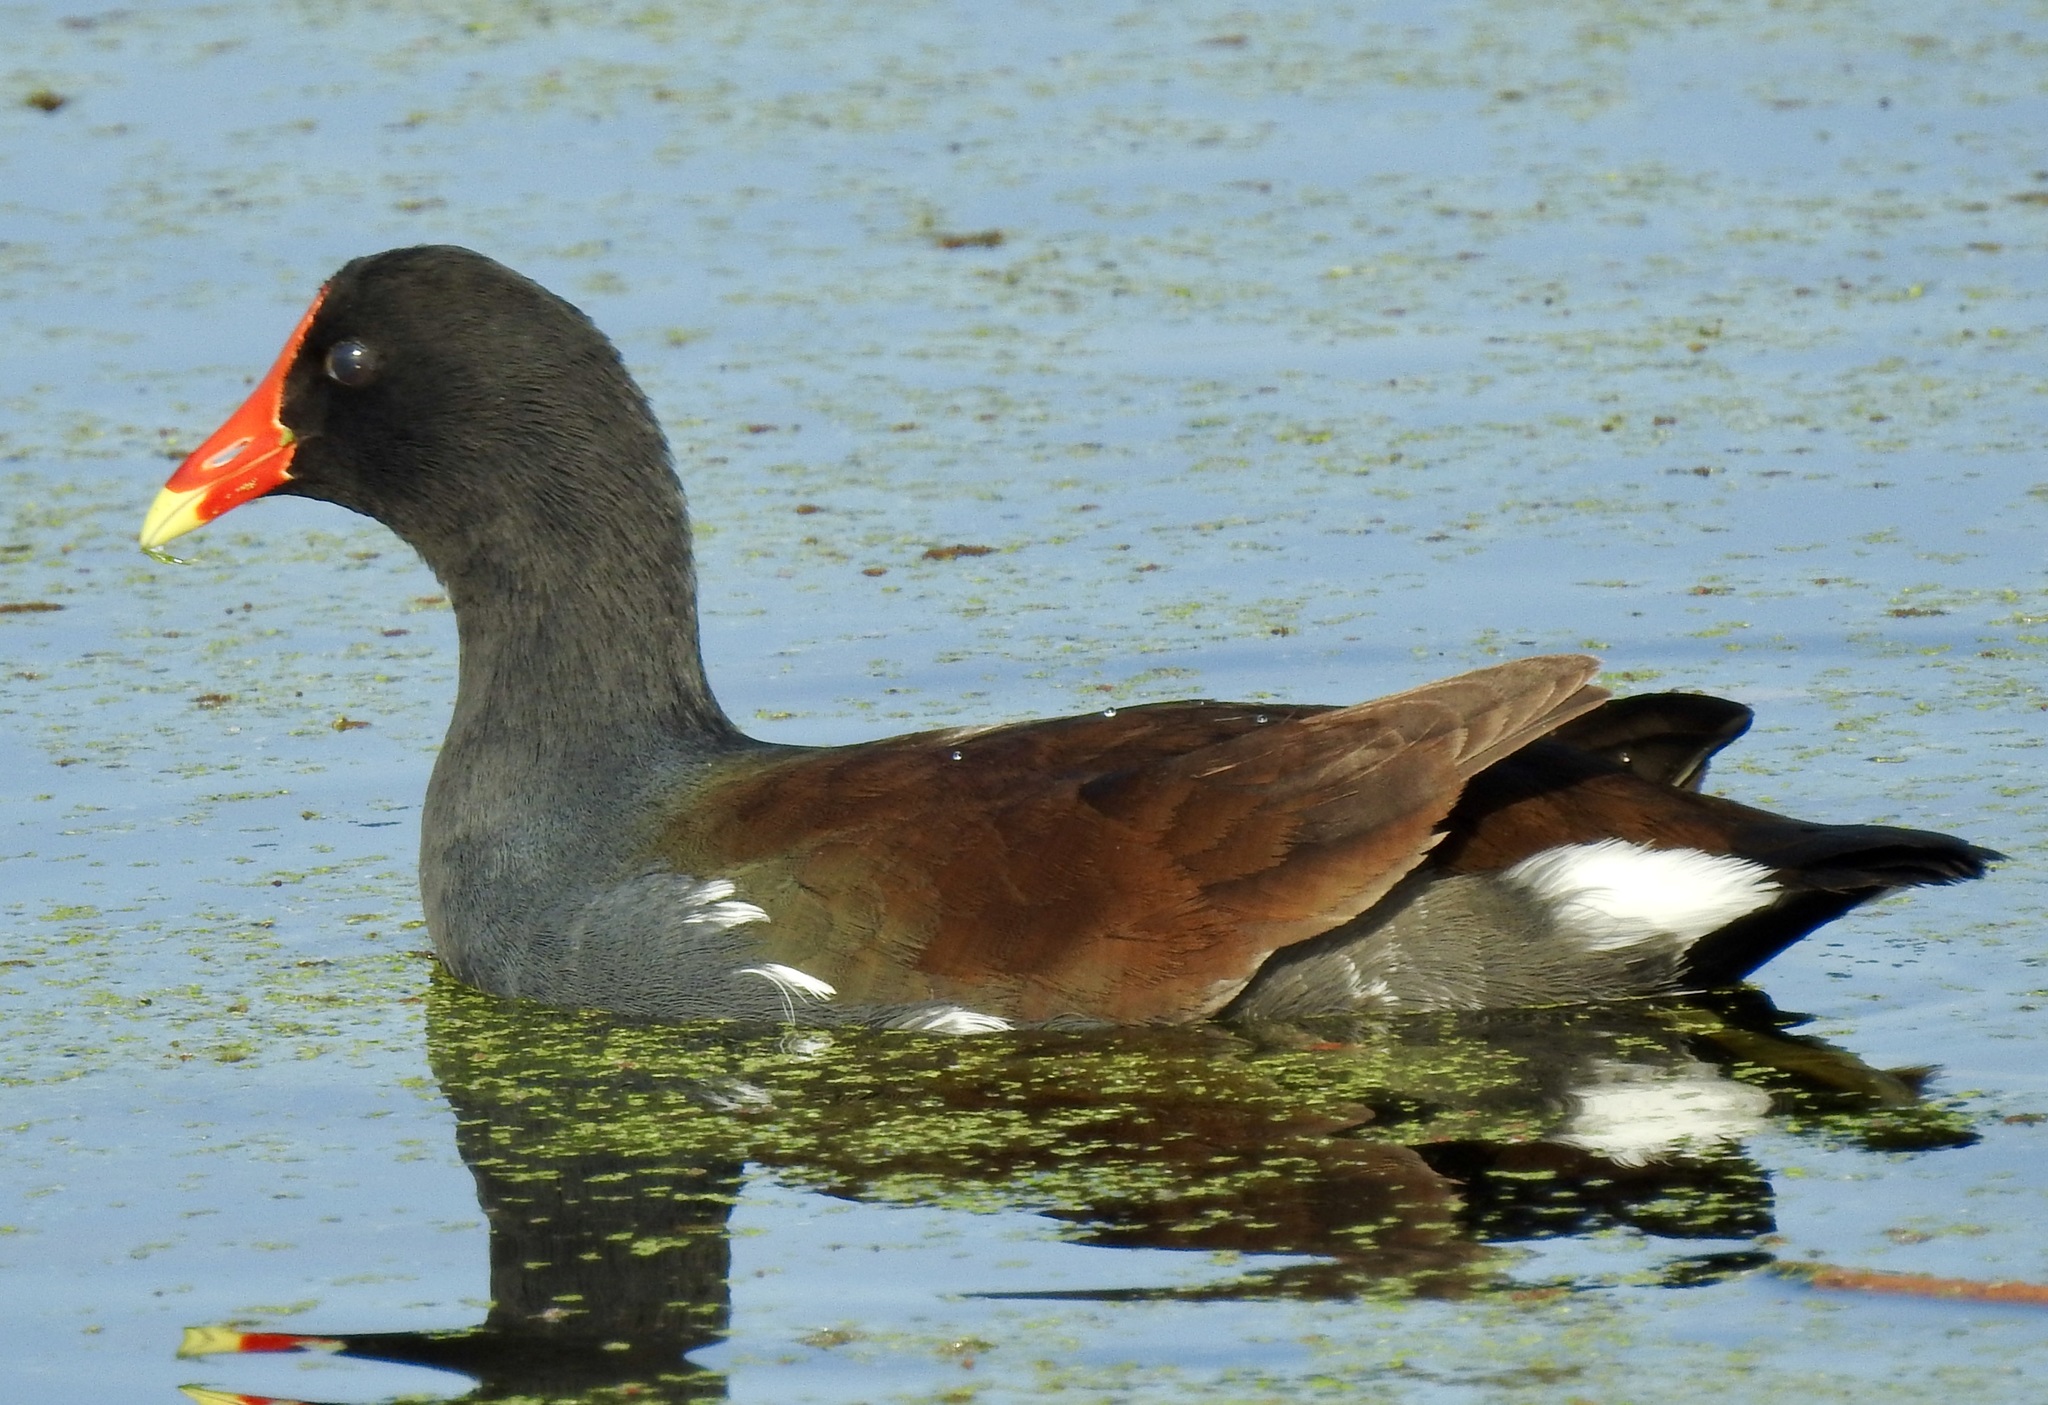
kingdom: Animalia
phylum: Chordata
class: Aves
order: Gruiformes
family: Rallidae
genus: Gallinula
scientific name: Gallinula chloropus
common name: Common moorhen
